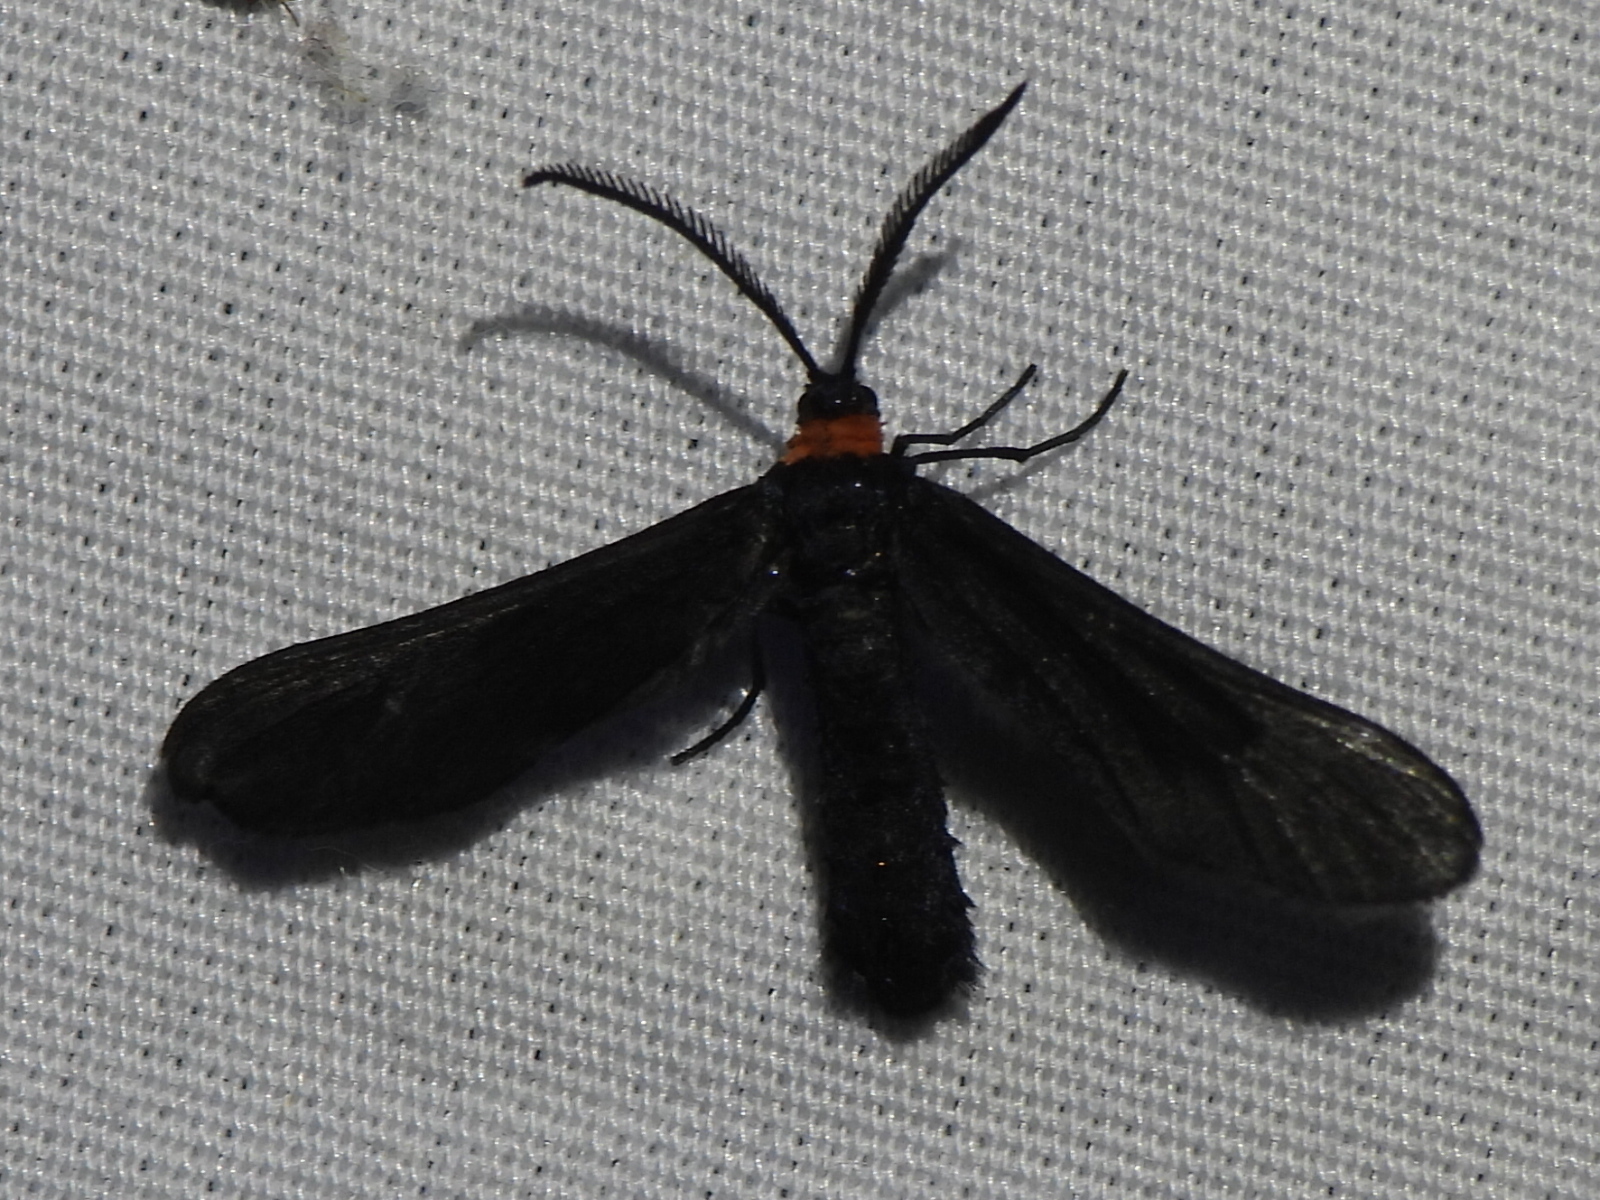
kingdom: Animalia
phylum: Arthropoda
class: Insecta
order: Lepidoptera
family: Zygaenidae
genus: Harrisina
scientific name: Harrisina americana
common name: Grapeleaf skeletonizer moth
